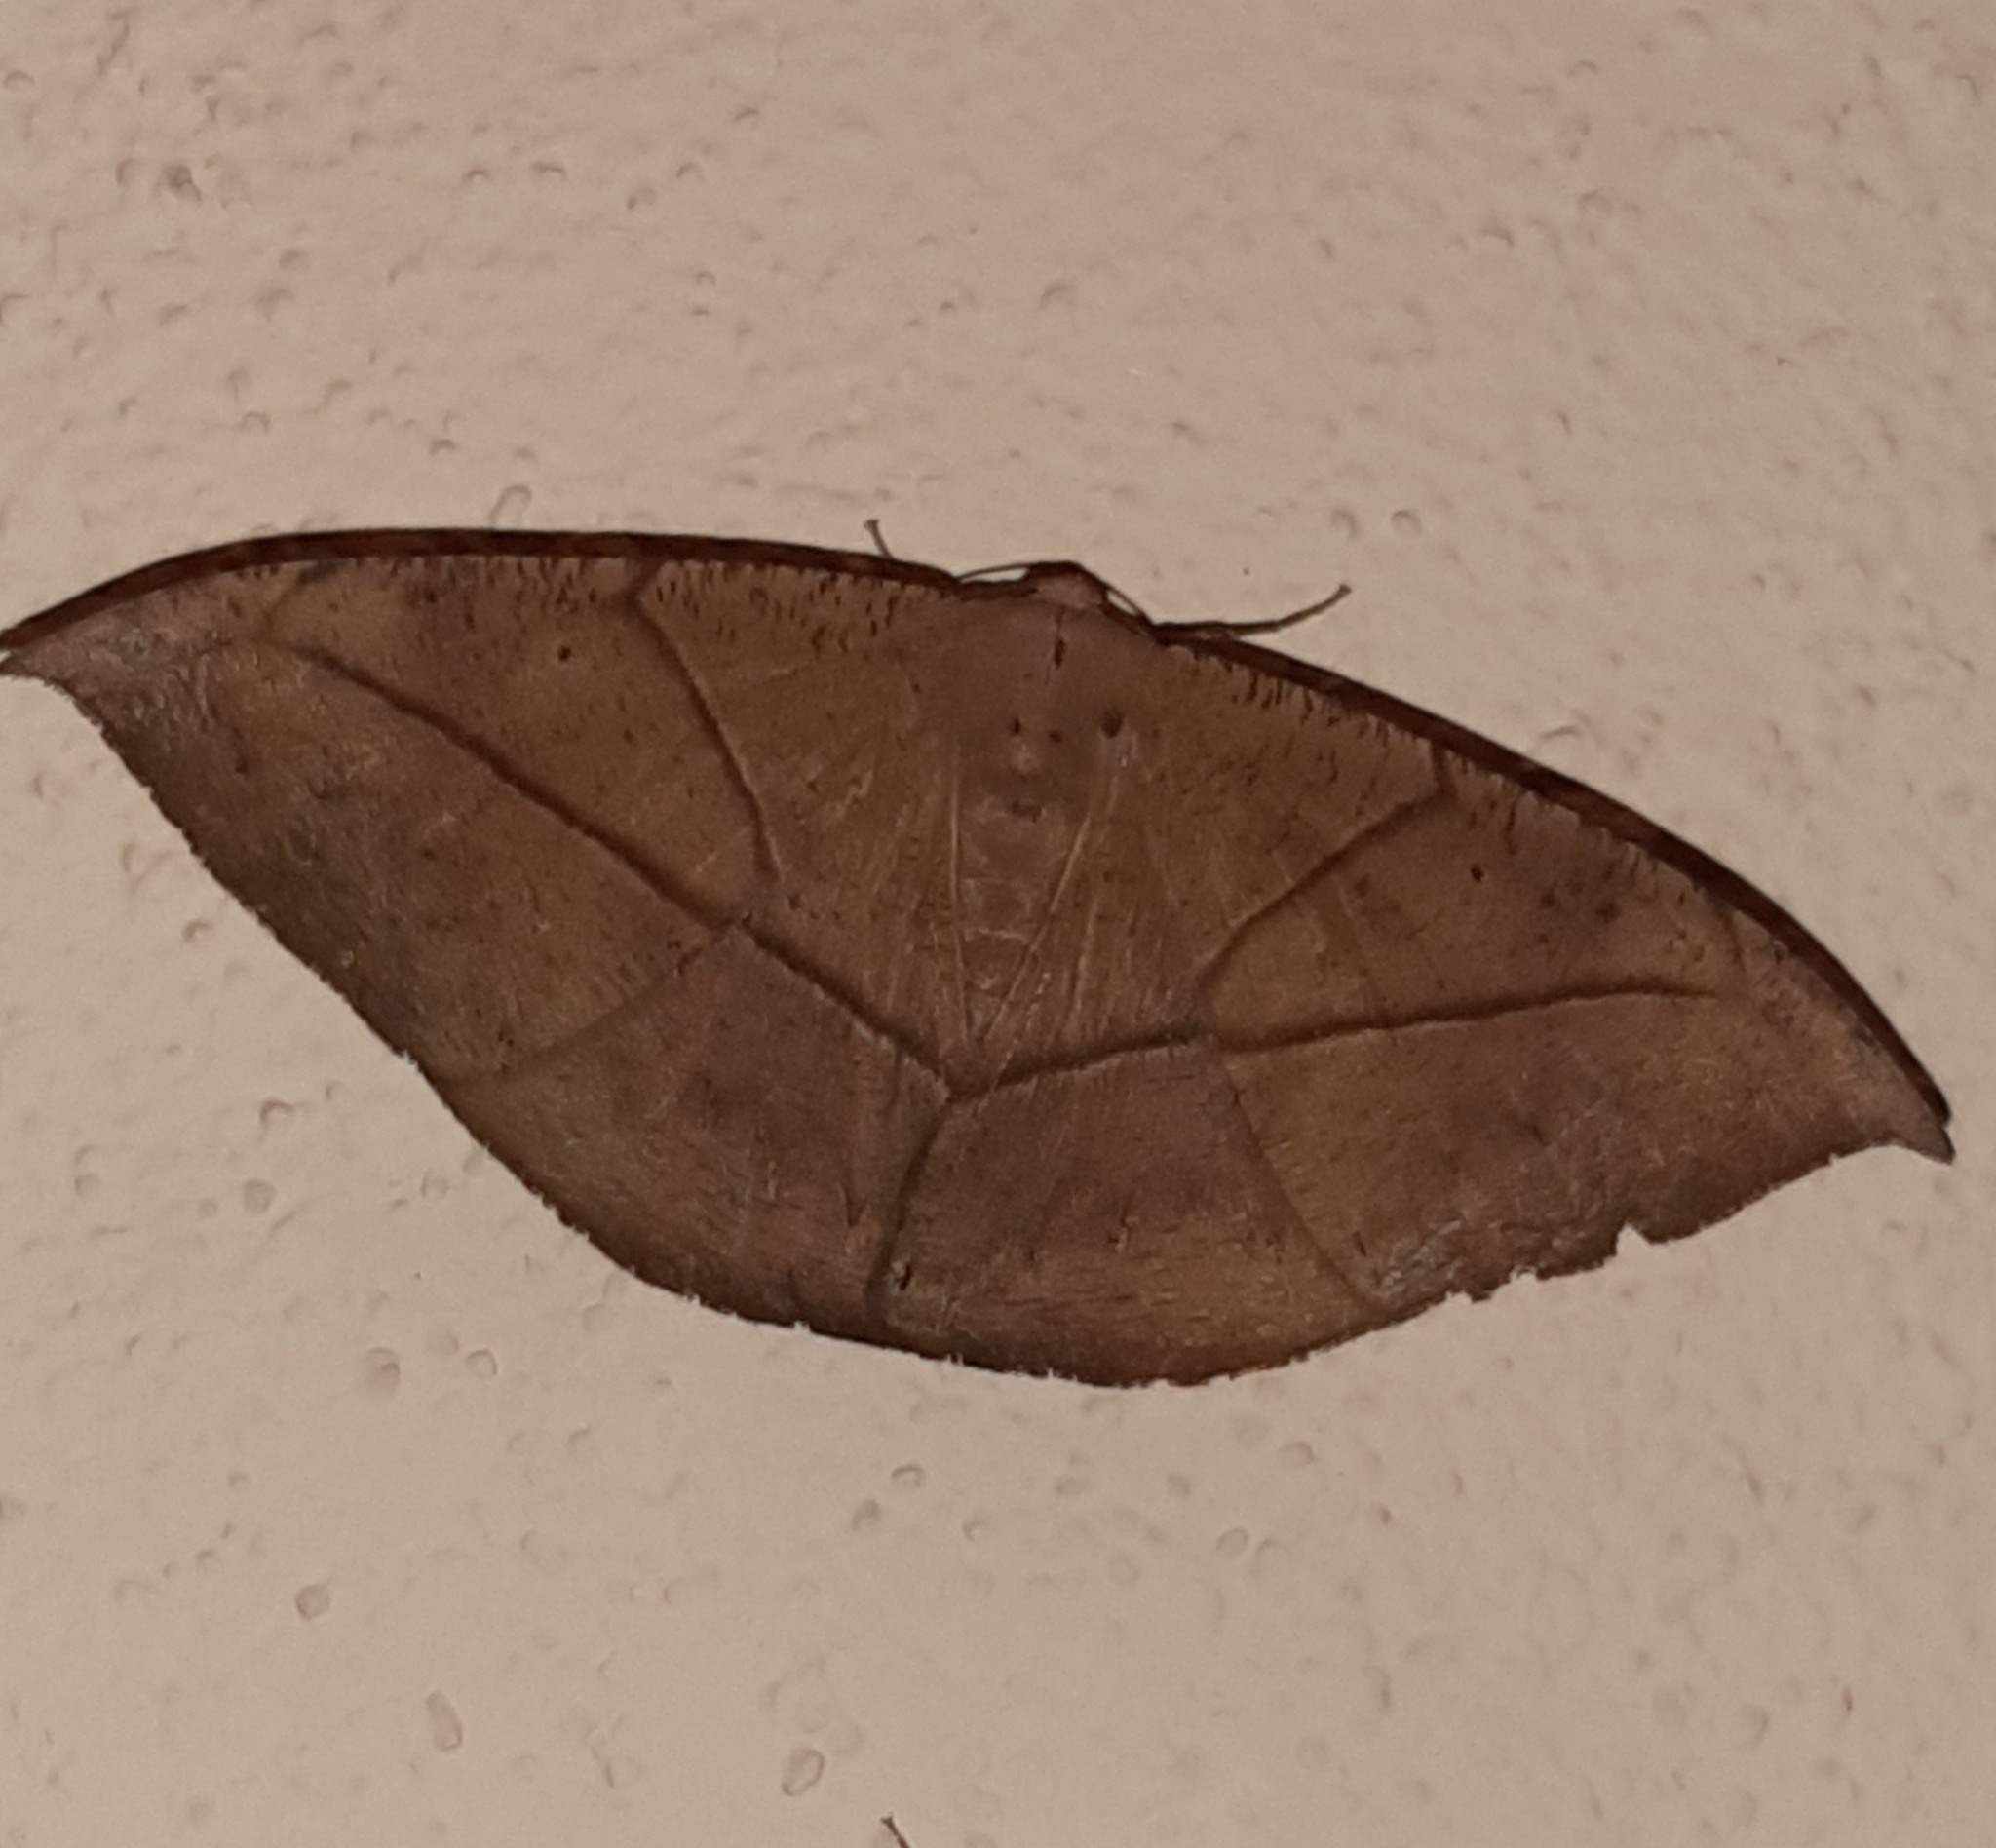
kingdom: Animalia
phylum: Arthropoda
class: Insecta
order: Lepidoptera
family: Geometridae
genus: Oxydia
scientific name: Oxydia trychiata
